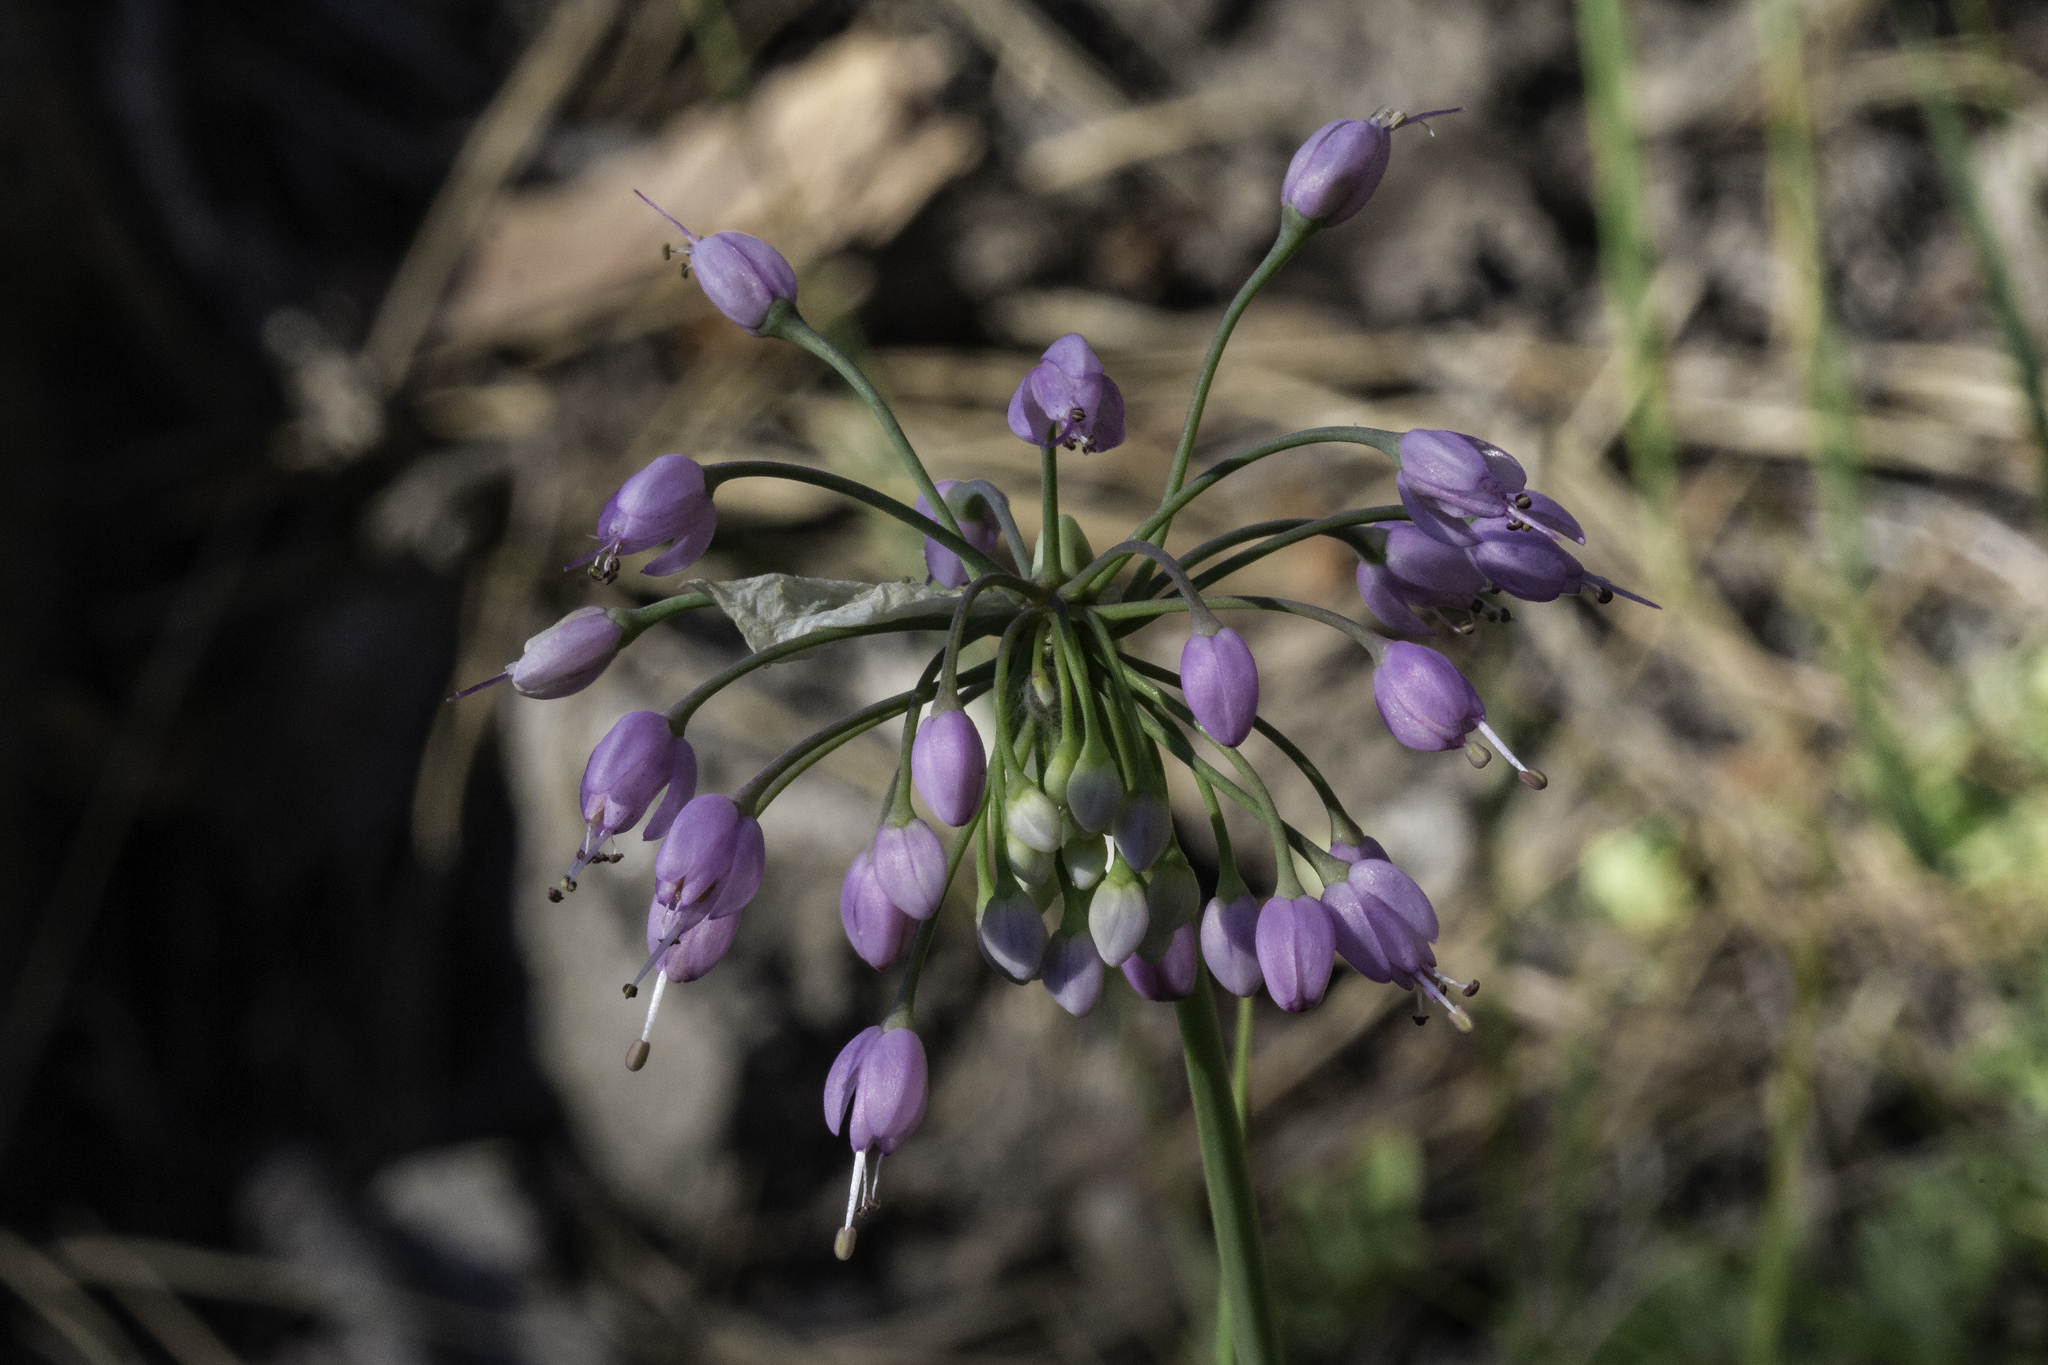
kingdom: Plantae
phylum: Tracheophyta
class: Liliopsida
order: Asparagales
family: Amaryllidaceae
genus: Allium
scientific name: Allium cernuum
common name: Nodding onion
